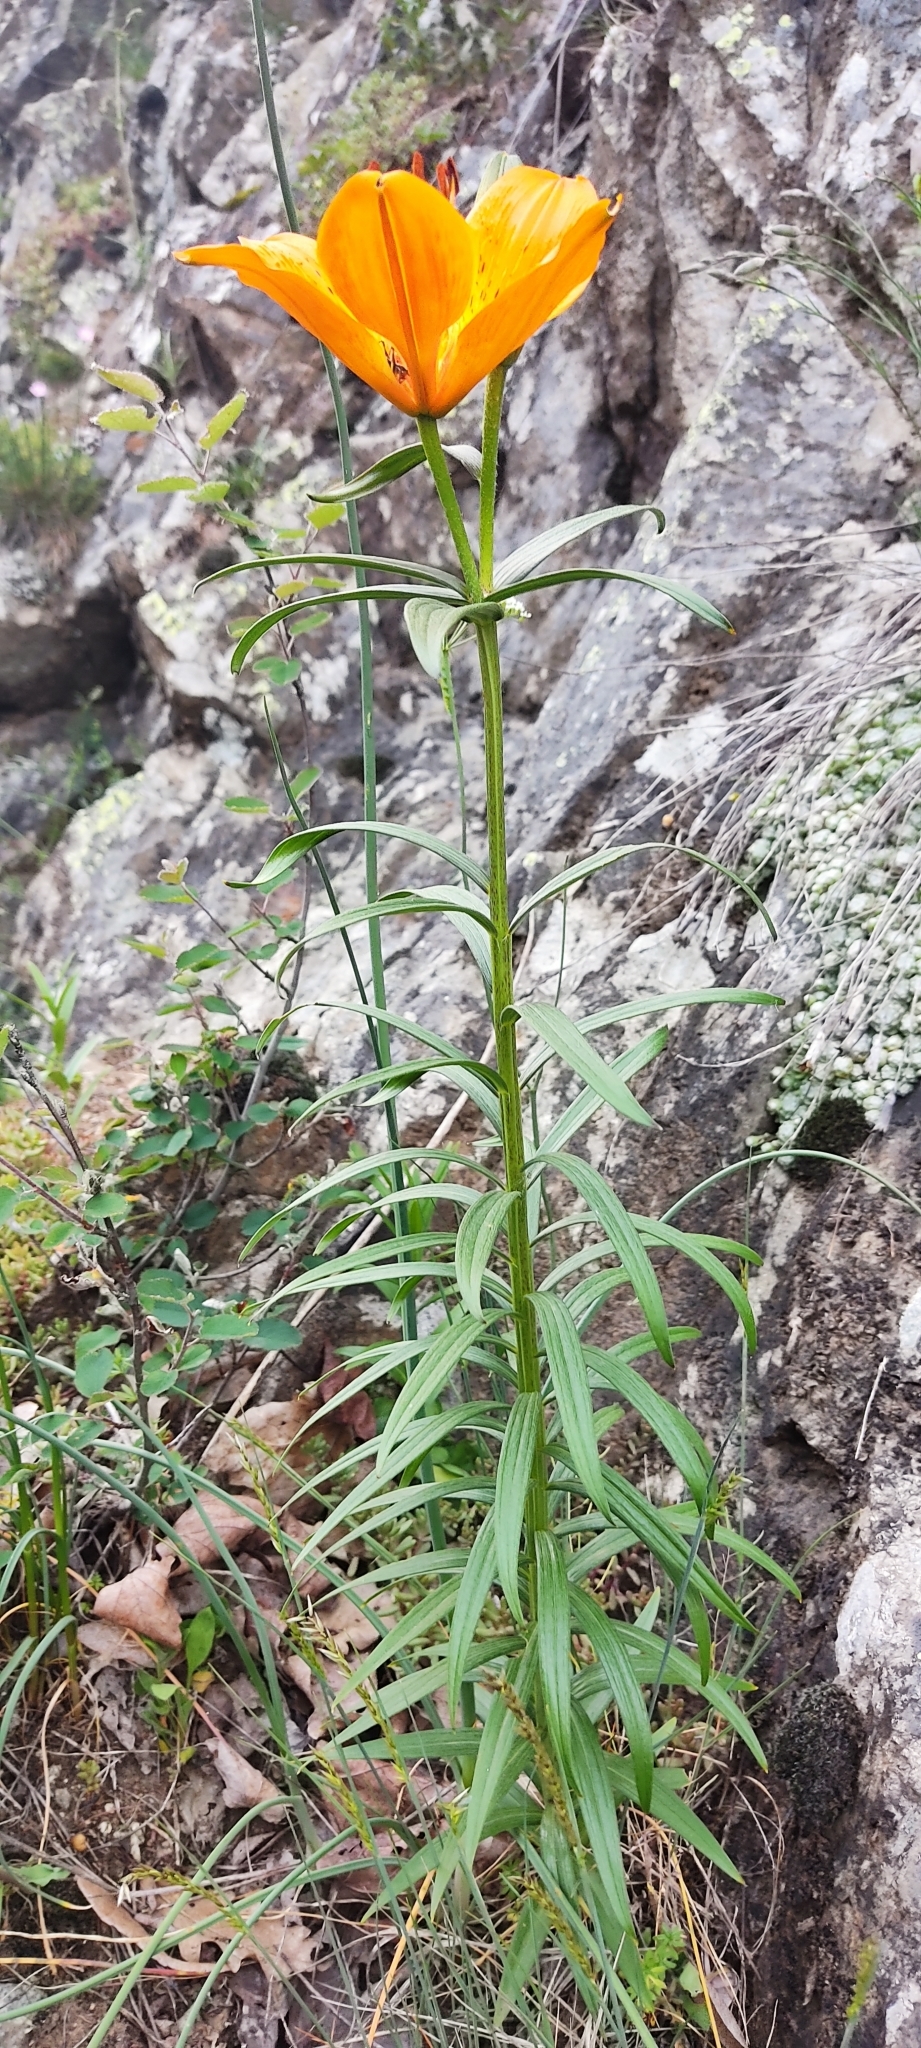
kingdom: Plantae
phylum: Tracheophyta
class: Liliopsida
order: Liliales
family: Liliaceae
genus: Lilium
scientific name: Lilium bulbiferum
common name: Orange lily
